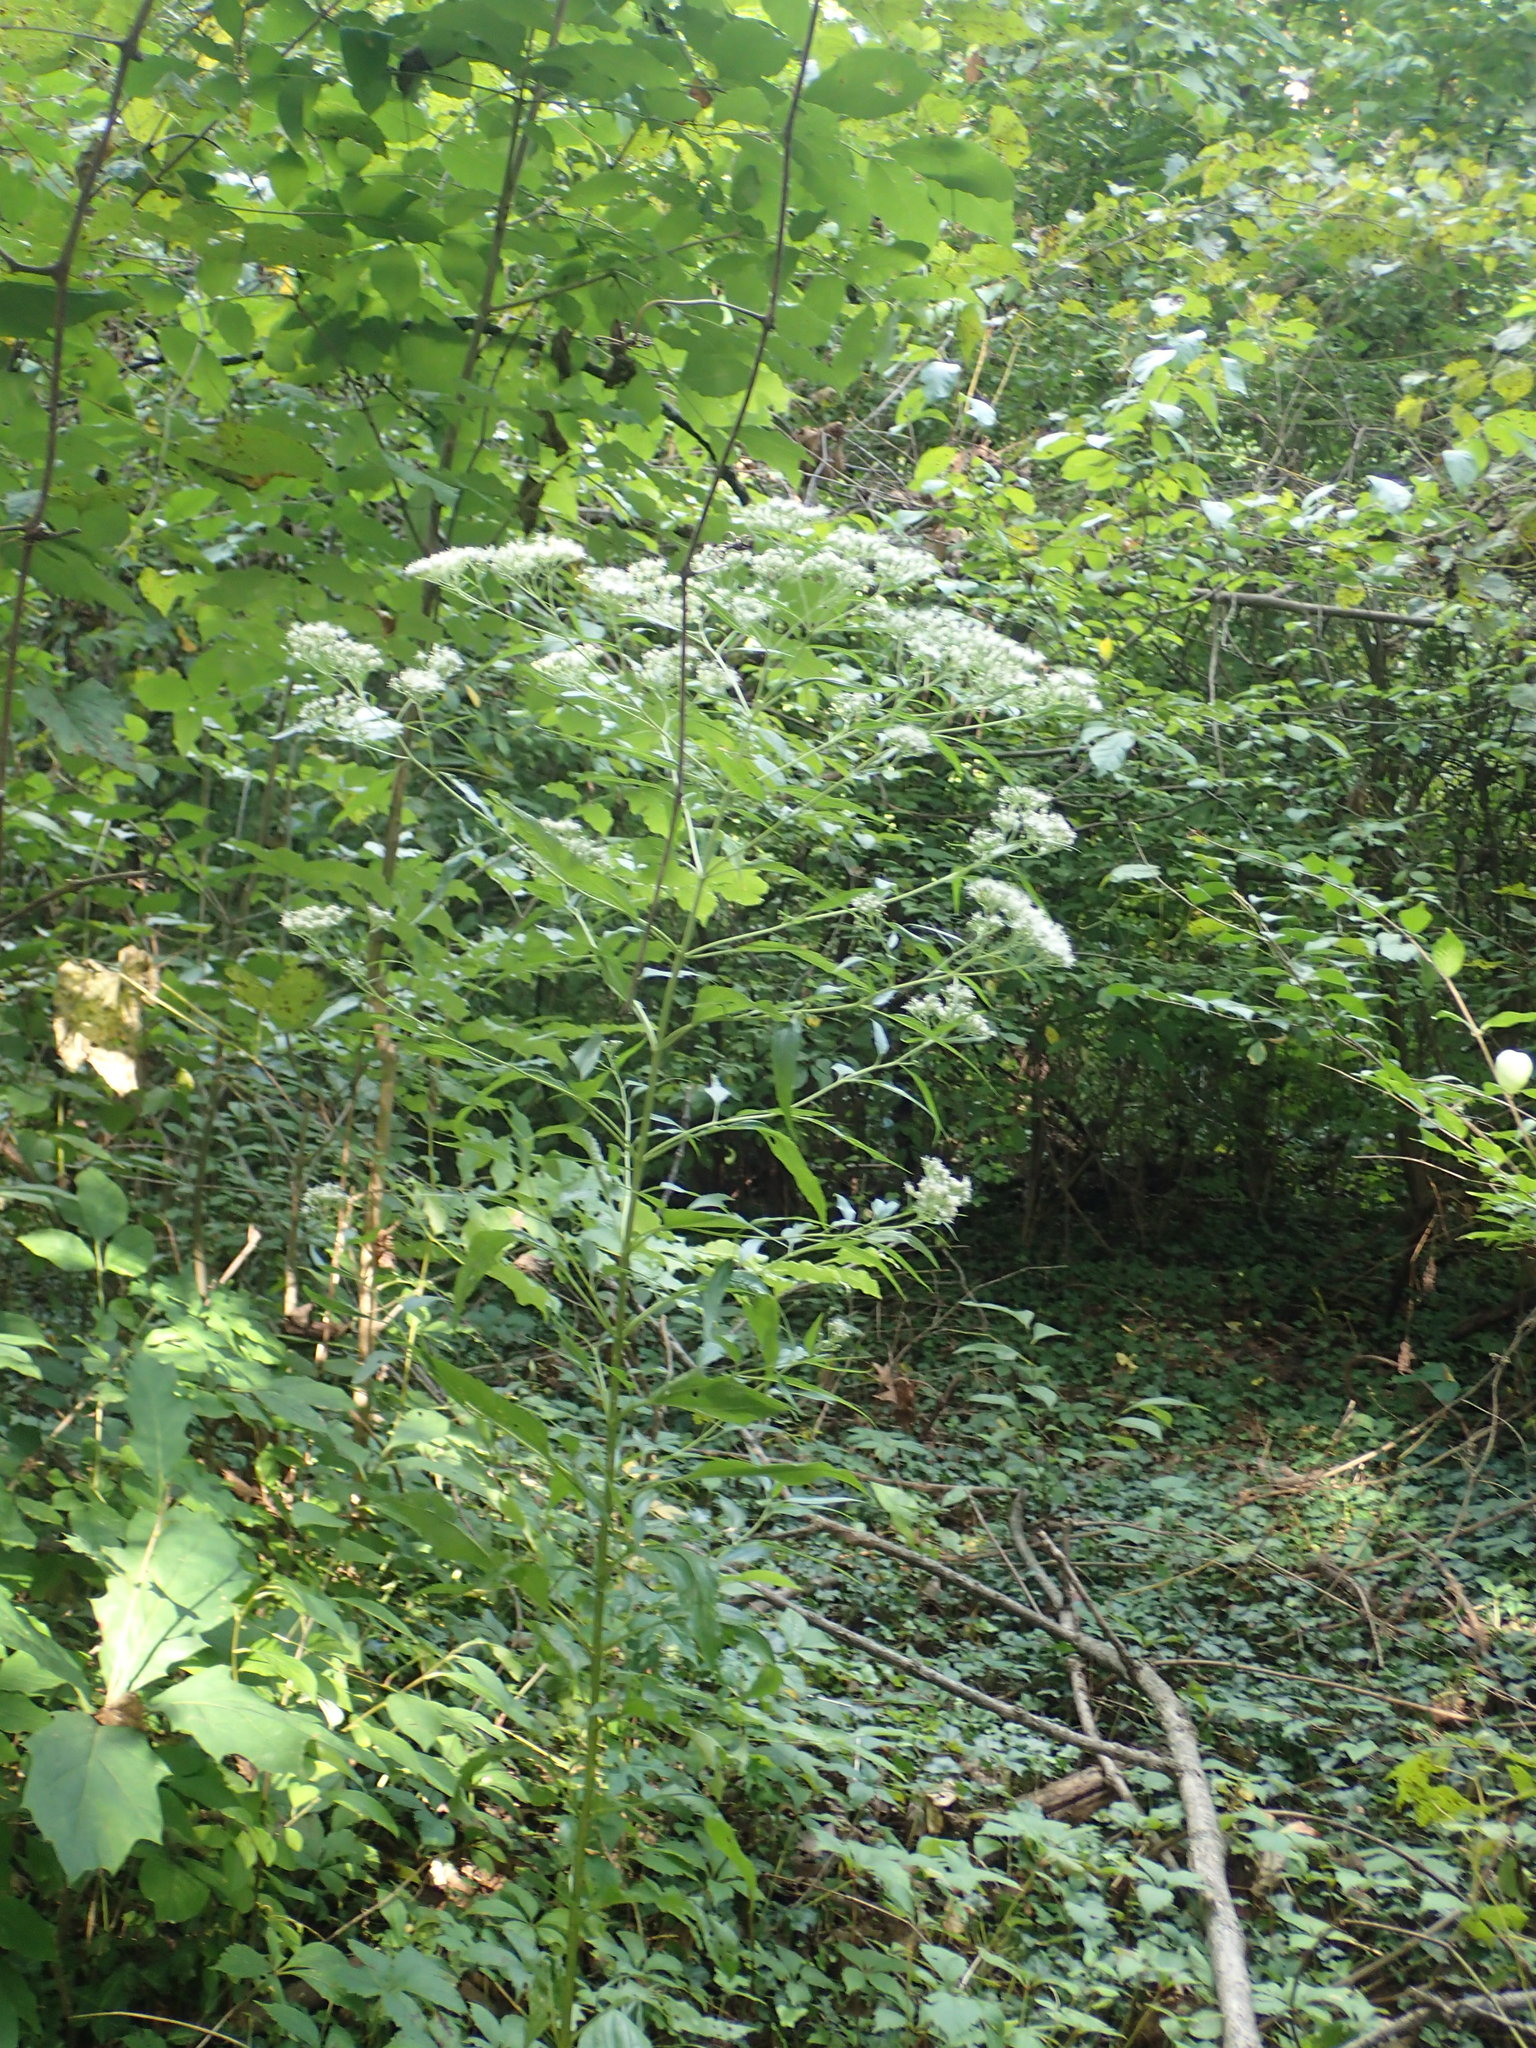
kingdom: Plantae
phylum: Tracheophyta
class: Magnoliopsida
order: Asterales
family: Asteraceae
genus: Eupatorium
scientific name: Eupatorium serotinum
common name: Late boneset
